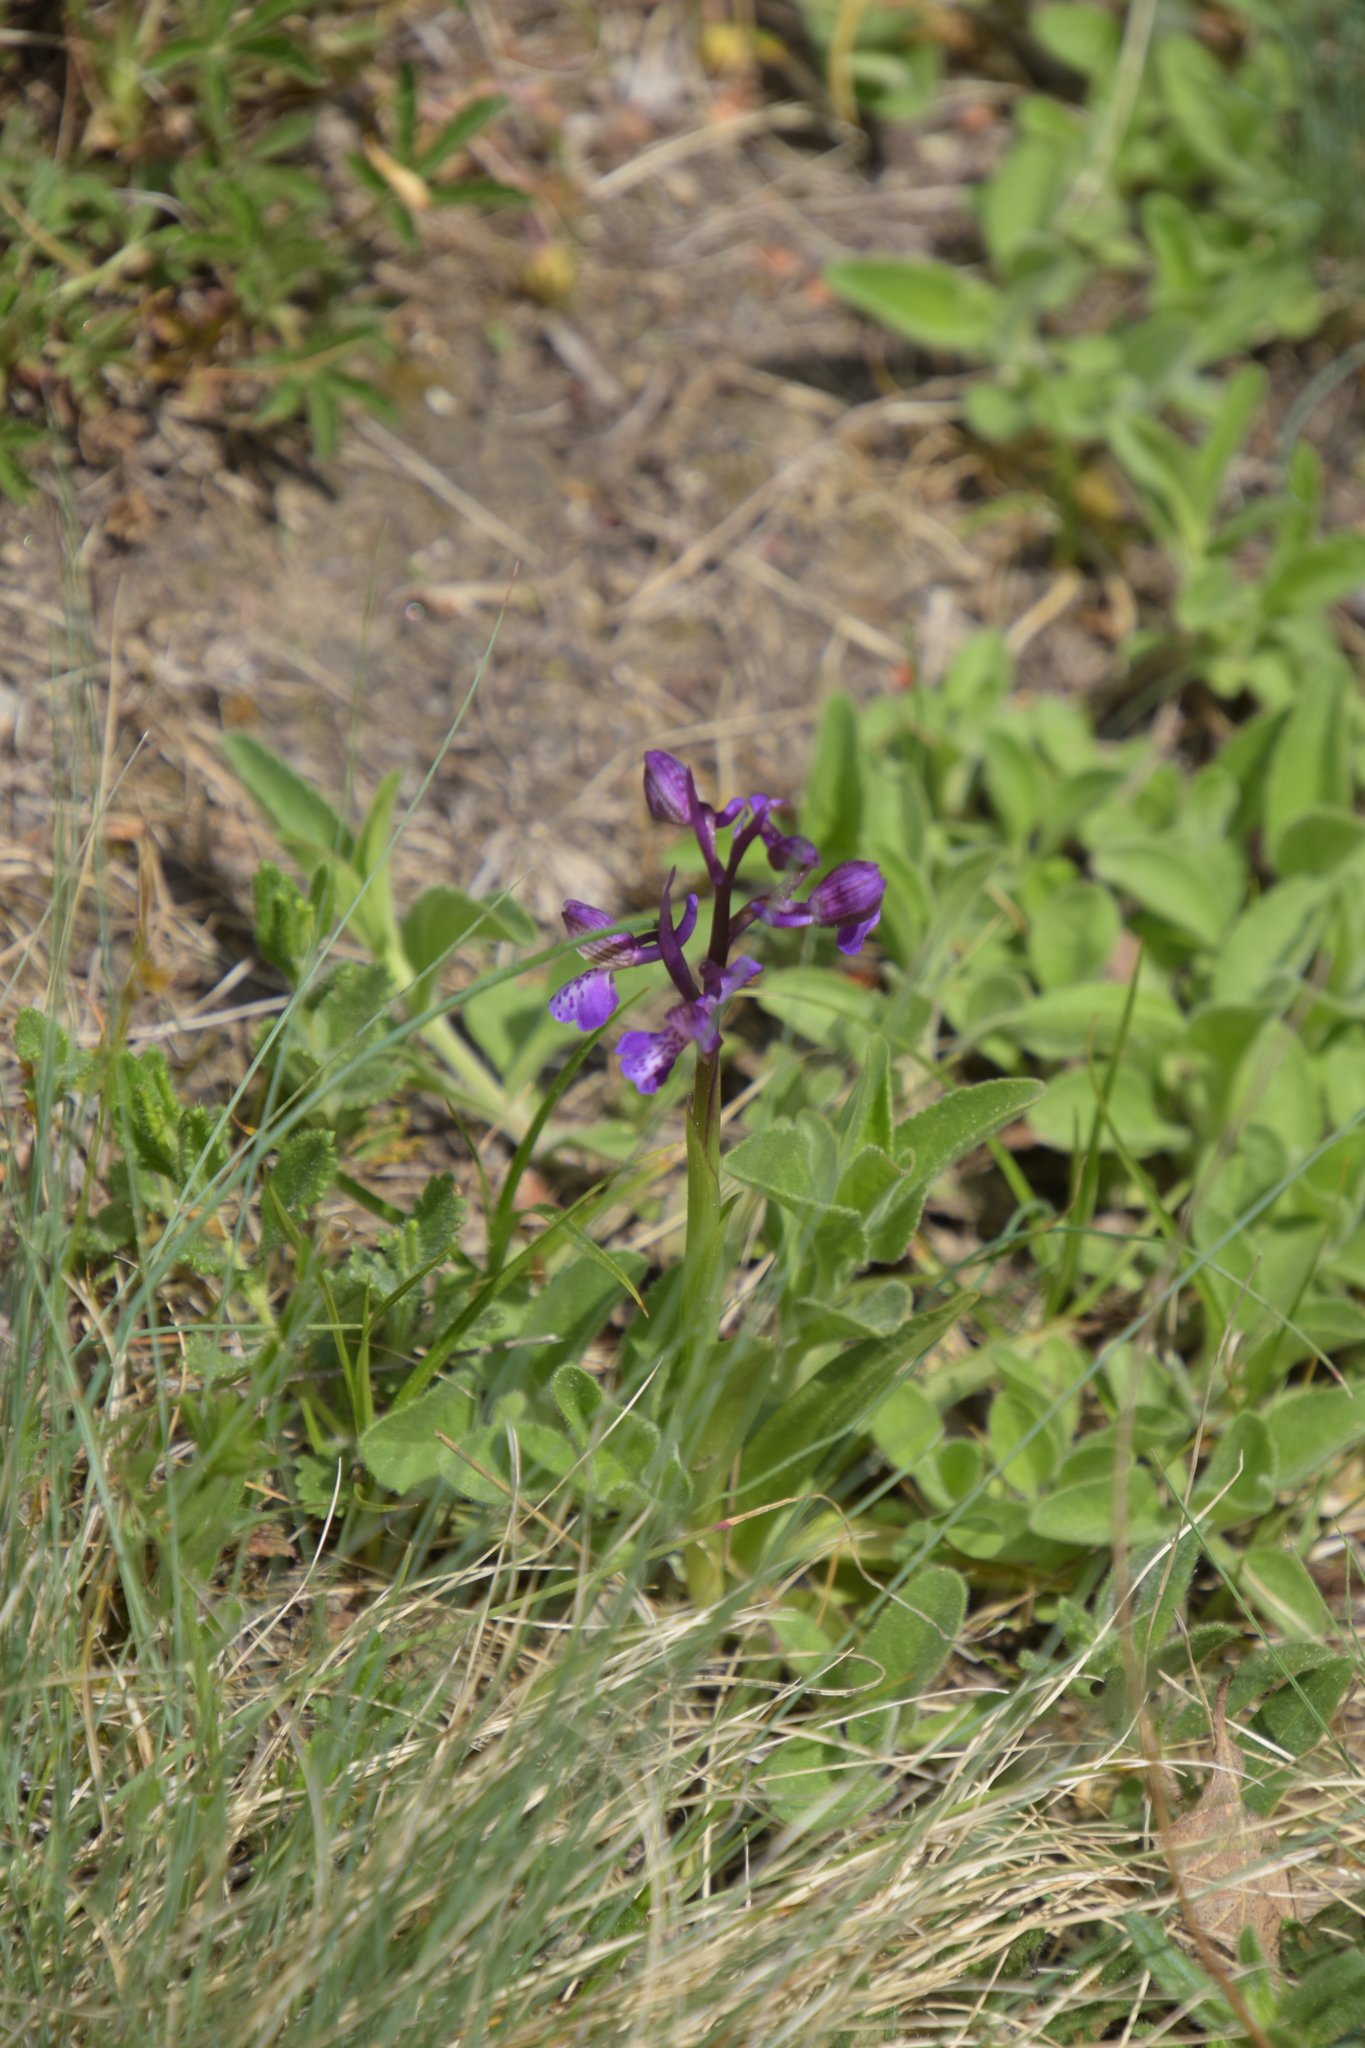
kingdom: Plantae
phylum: Tracheophyta
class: Liliopsida
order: Asparagales
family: Orchidaceae
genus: Anacamptis
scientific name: Anacamptis morio
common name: Green-winged orchid
